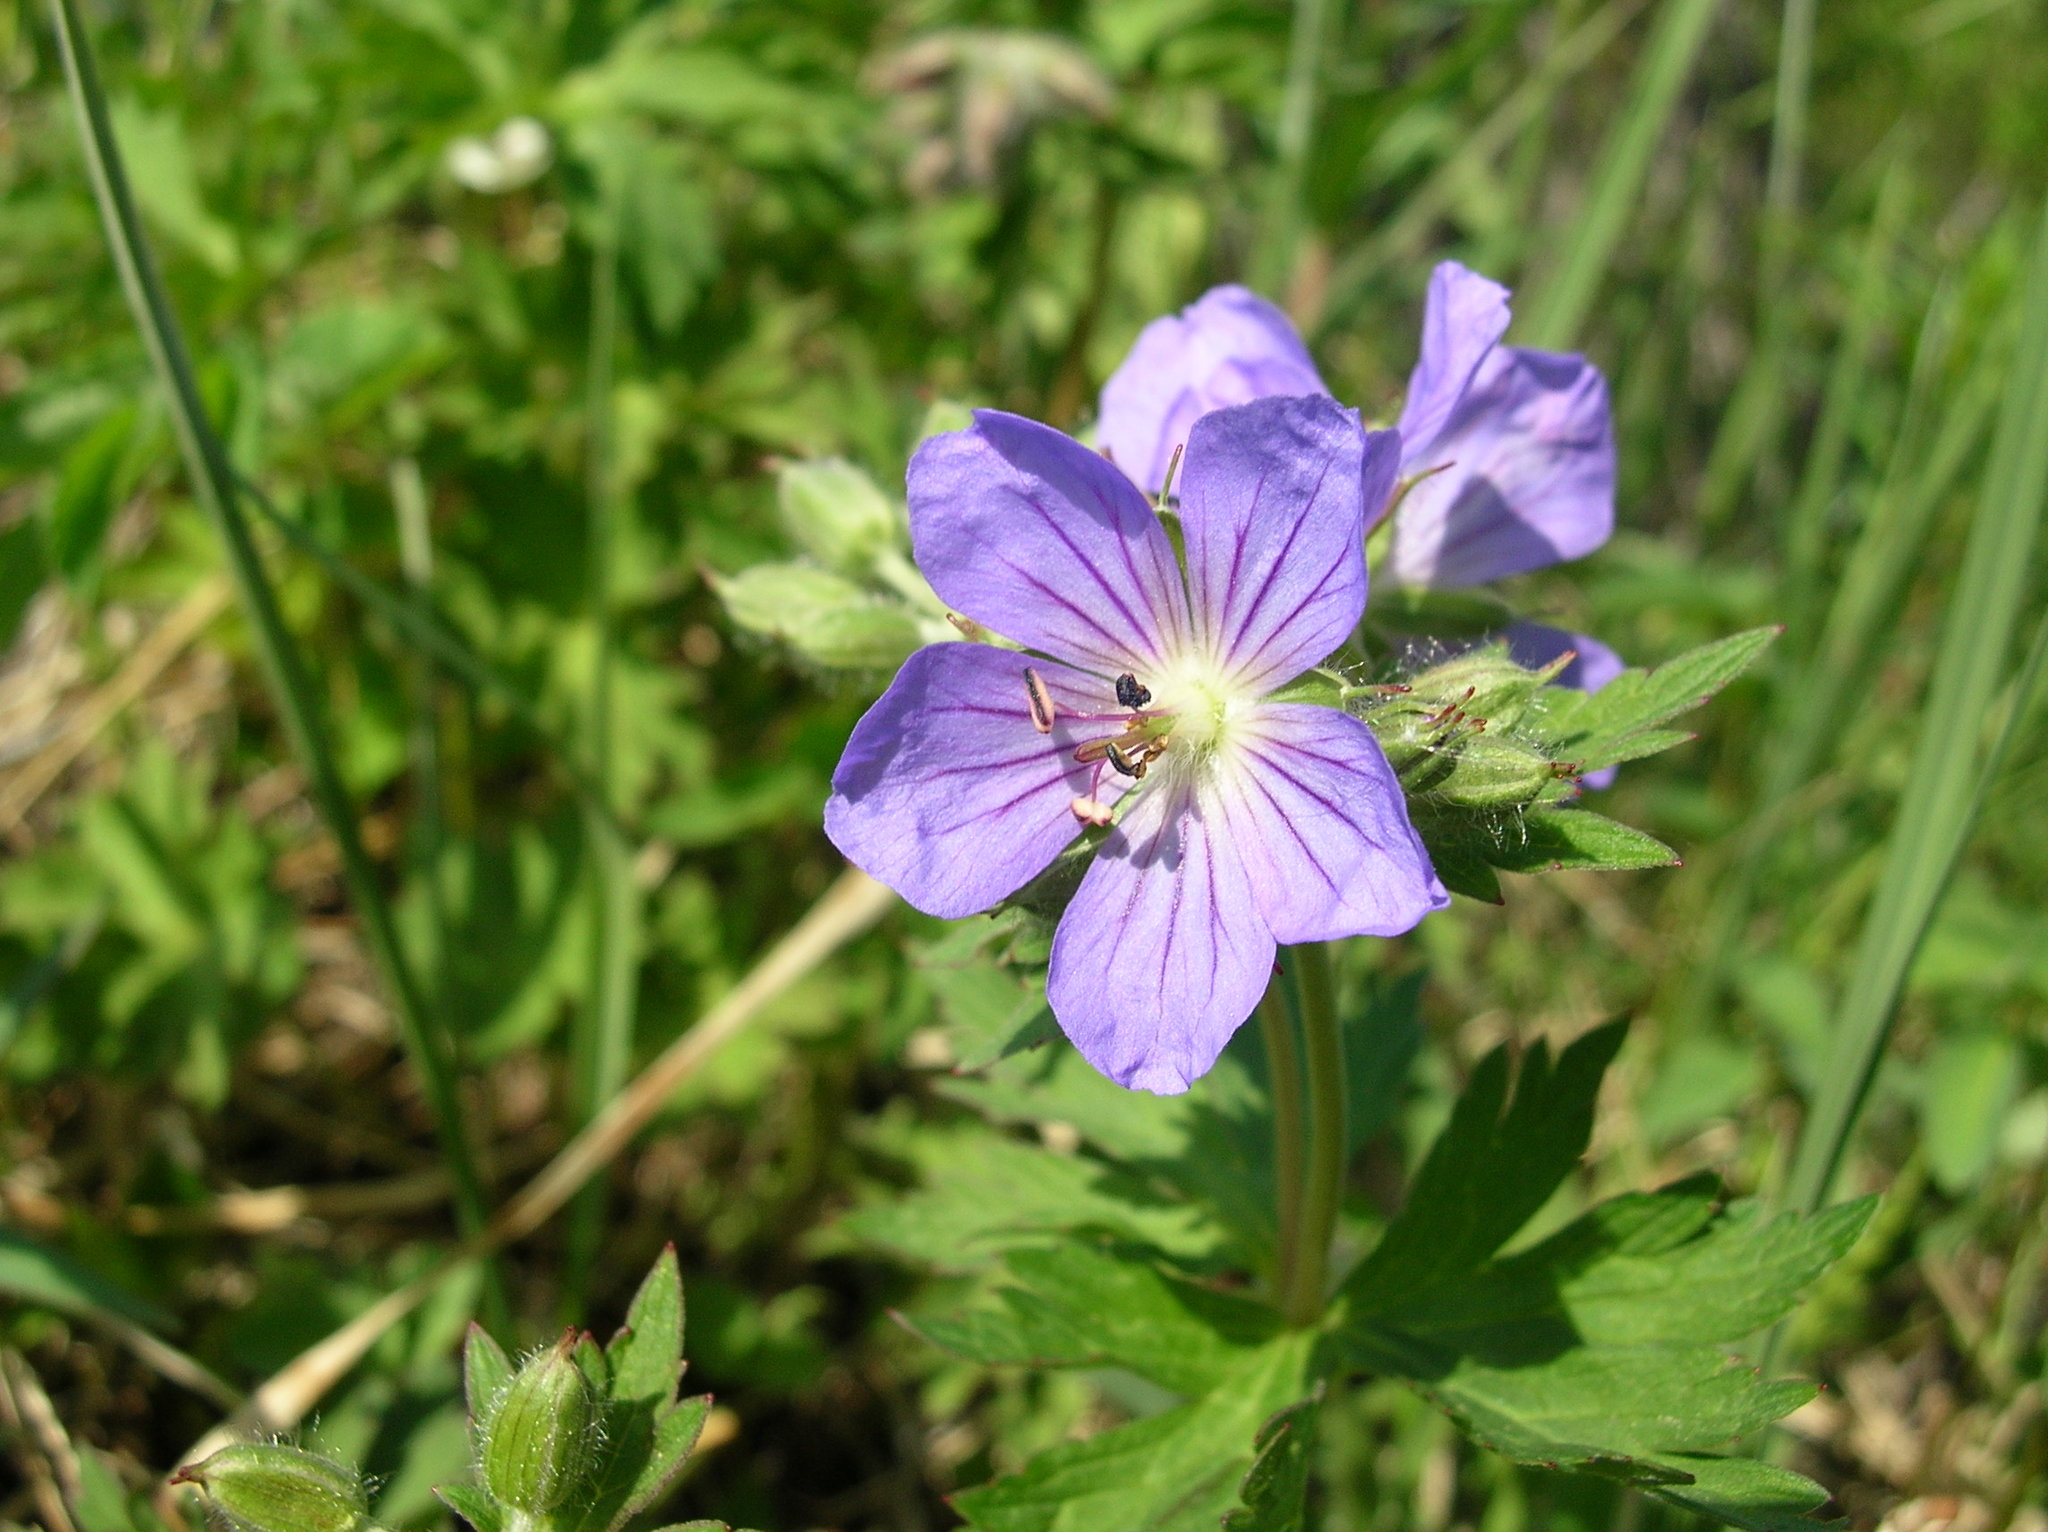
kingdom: Plantae
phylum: Tracheophyta
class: Magnoliopsida
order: Geraniales
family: Geraniaceae
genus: Geranium
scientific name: Geranium erianthum
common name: Northern crane's-bill
